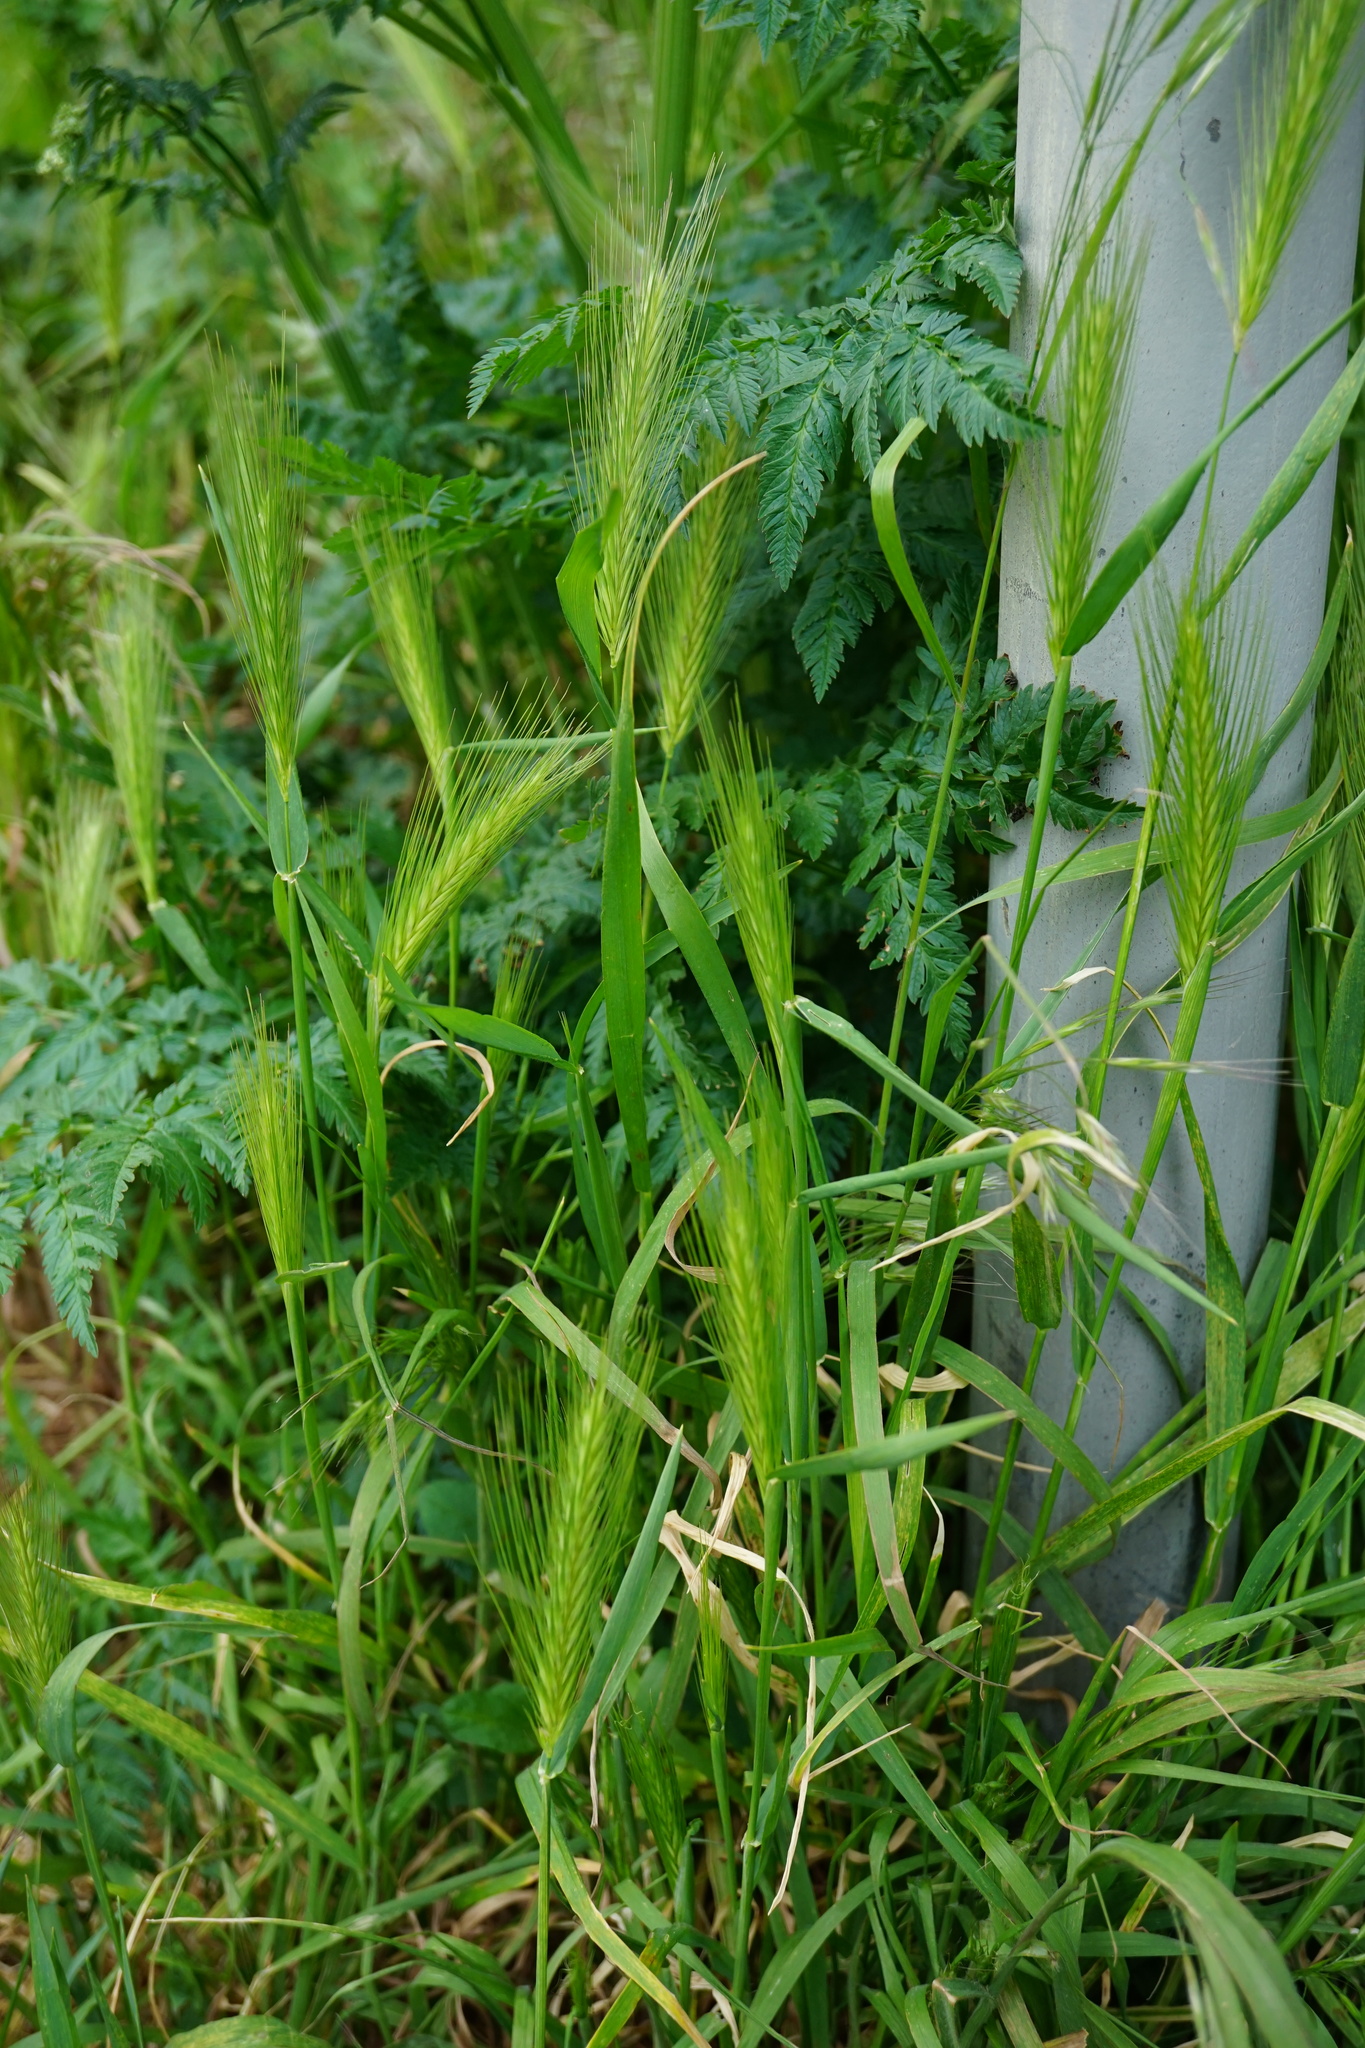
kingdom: Plantae
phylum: Tracheophyta
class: Liliopsida
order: Poales
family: Poaceae
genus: Hordeum
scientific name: Hordeum murinum
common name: Wall barley
